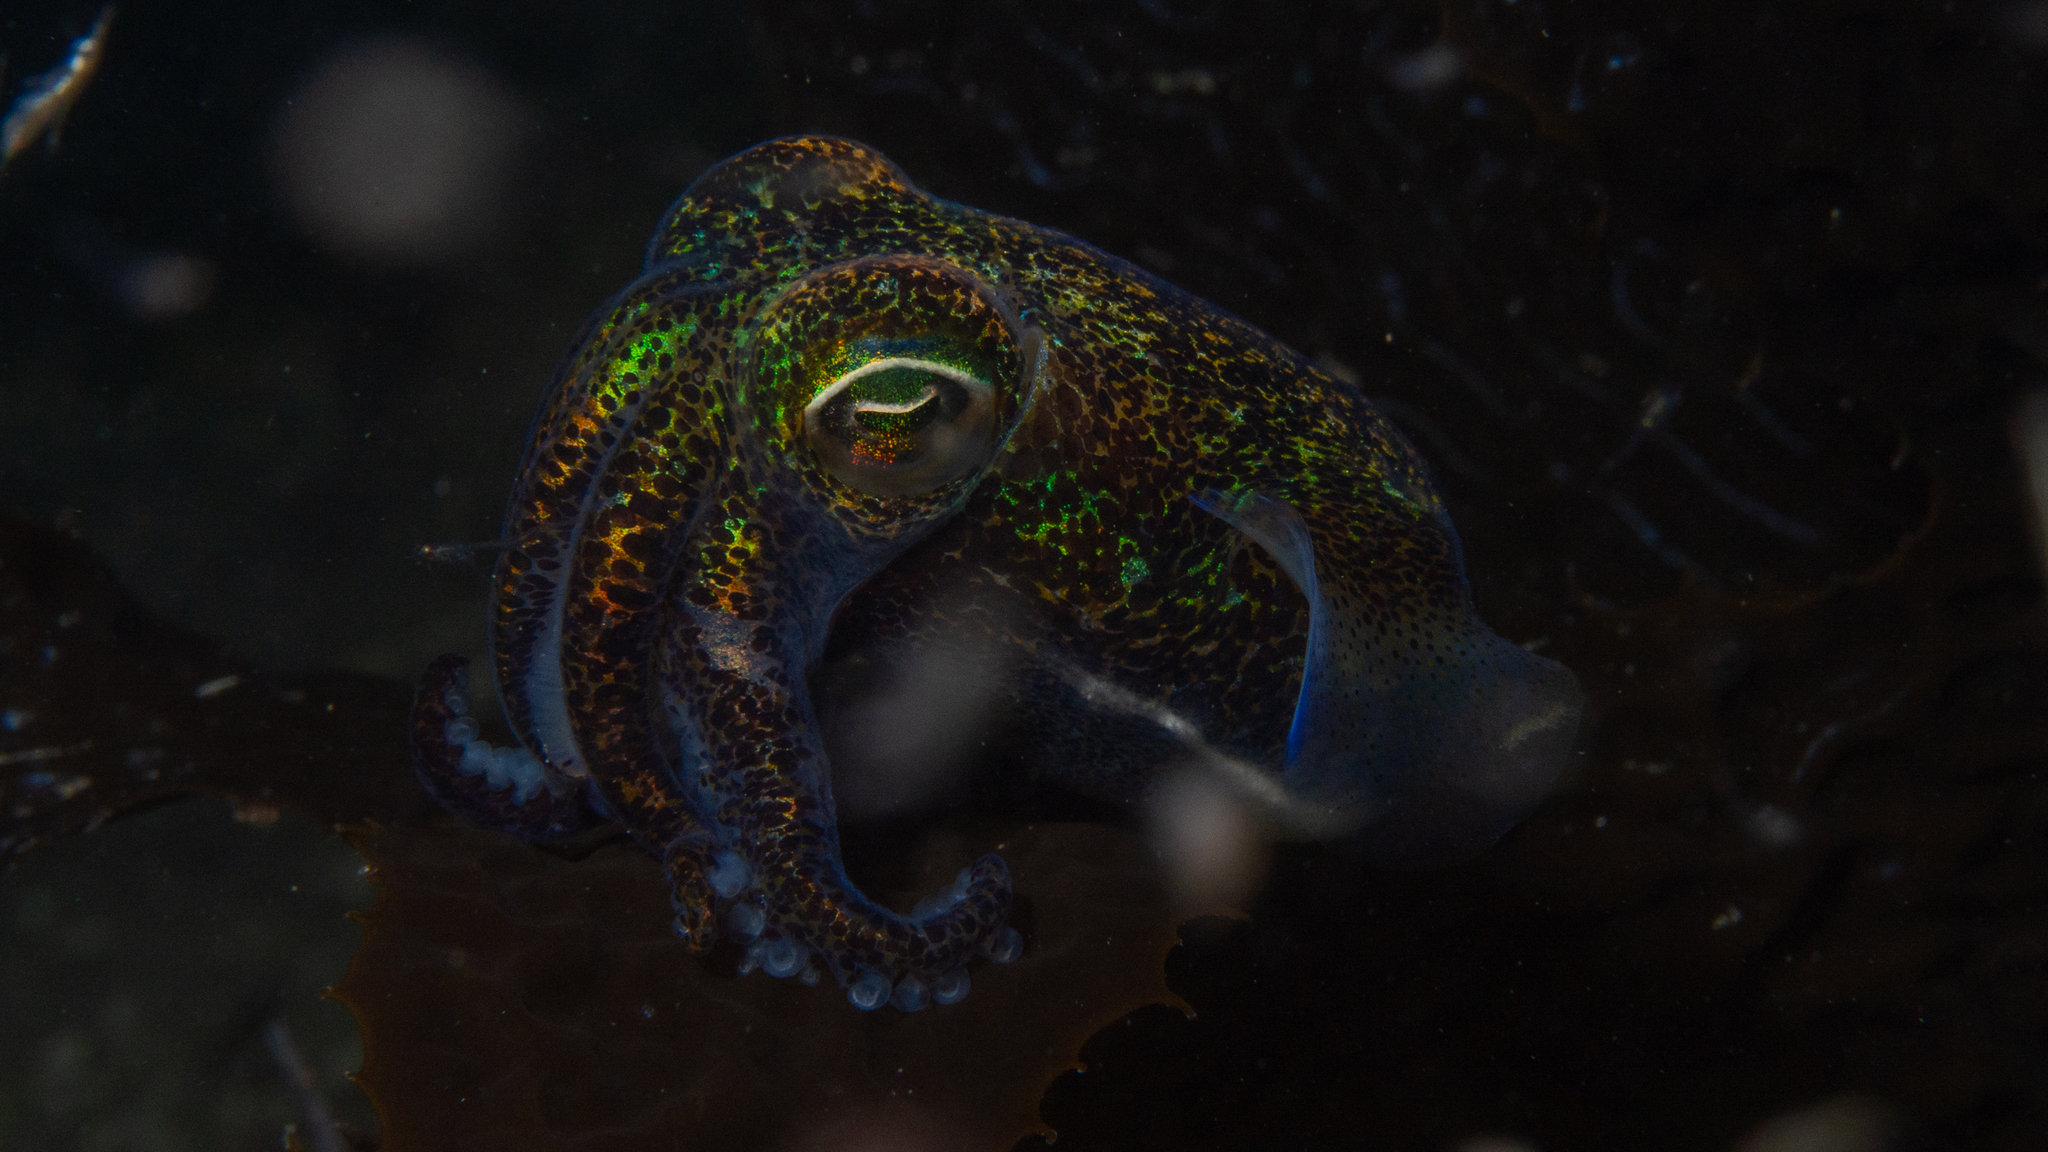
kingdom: Animalia
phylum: Mollusca
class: Cephalopoda
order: Sepiida
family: Sepiolidae
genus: Euprymna
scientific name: Euprymna tasmanica
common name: Southern bobtail squid
